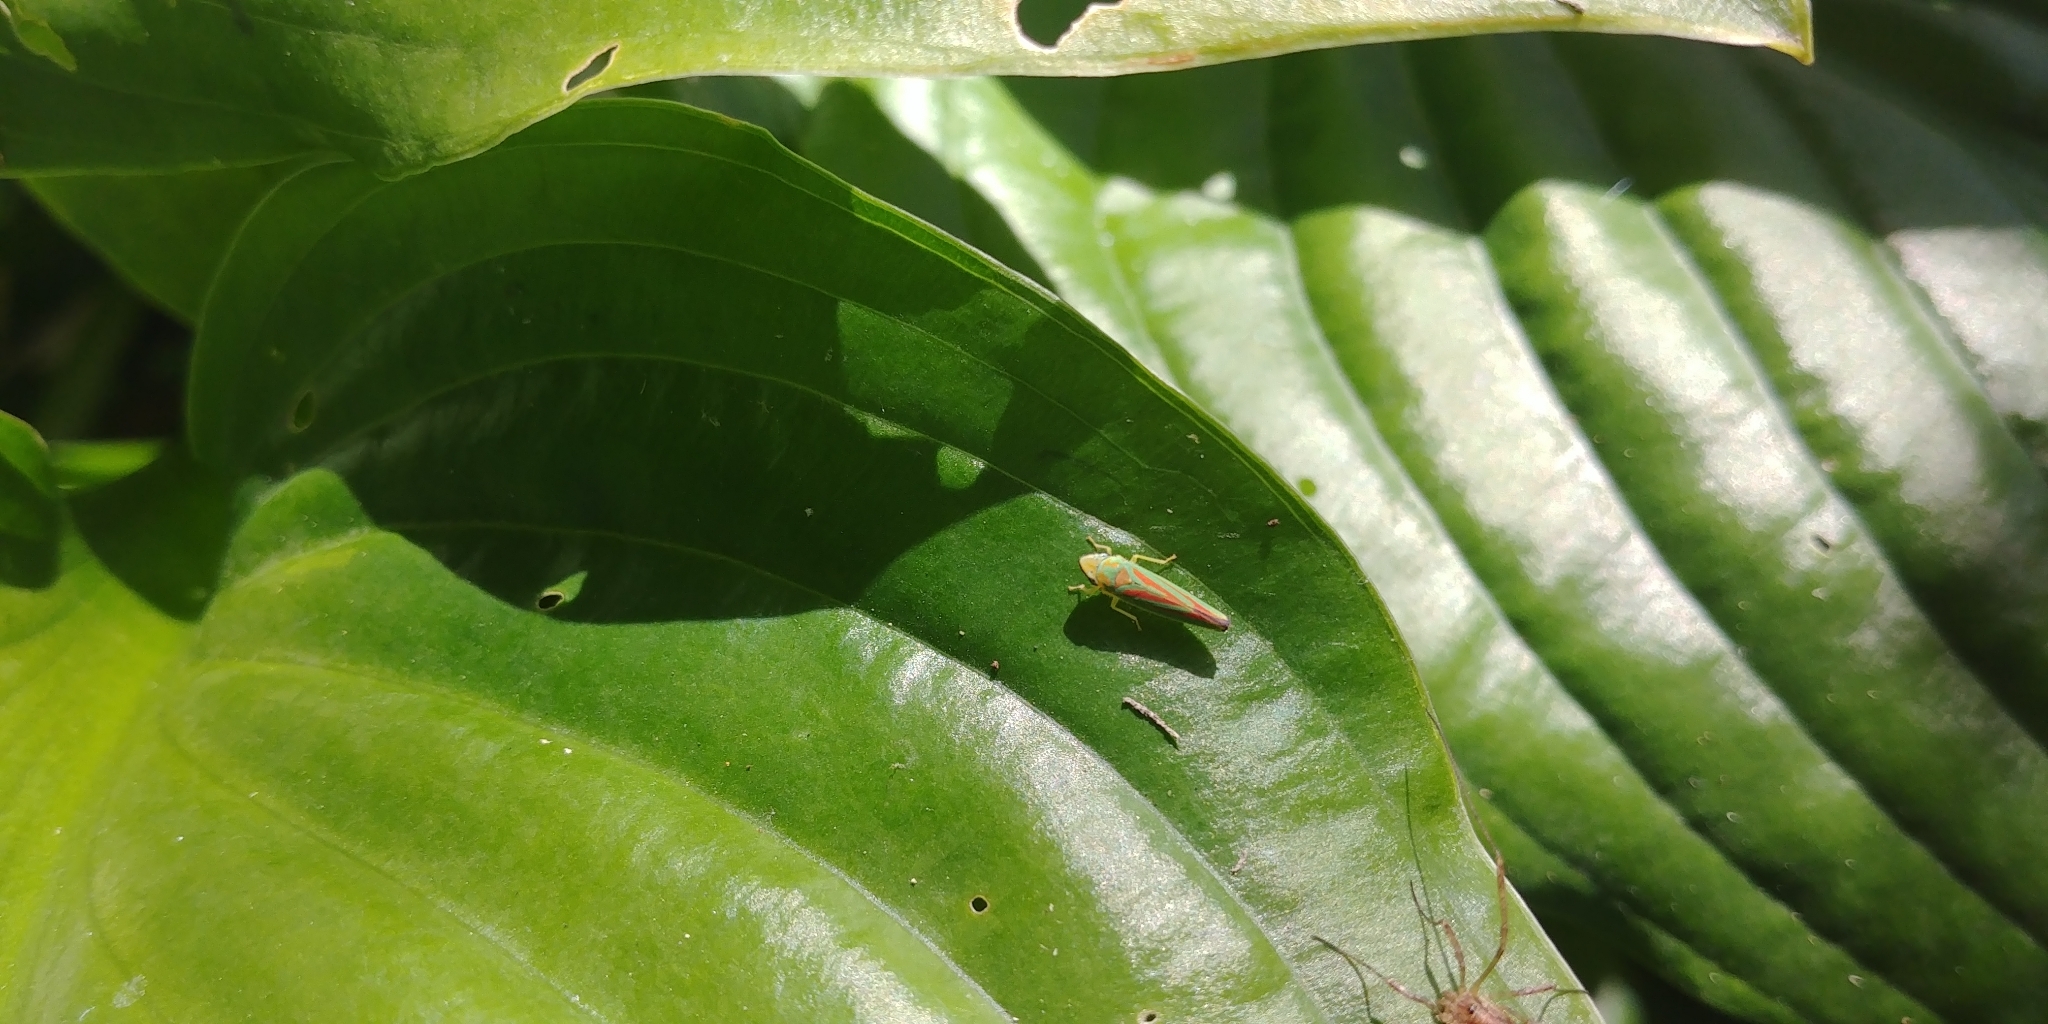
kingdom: Animalia
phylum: Arthropoda
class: Insecta
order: Hemiptera
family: Cicadellidae
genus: Graphocephala
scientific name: Graphocephala fennahi
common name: Rhododendron leafhopper
